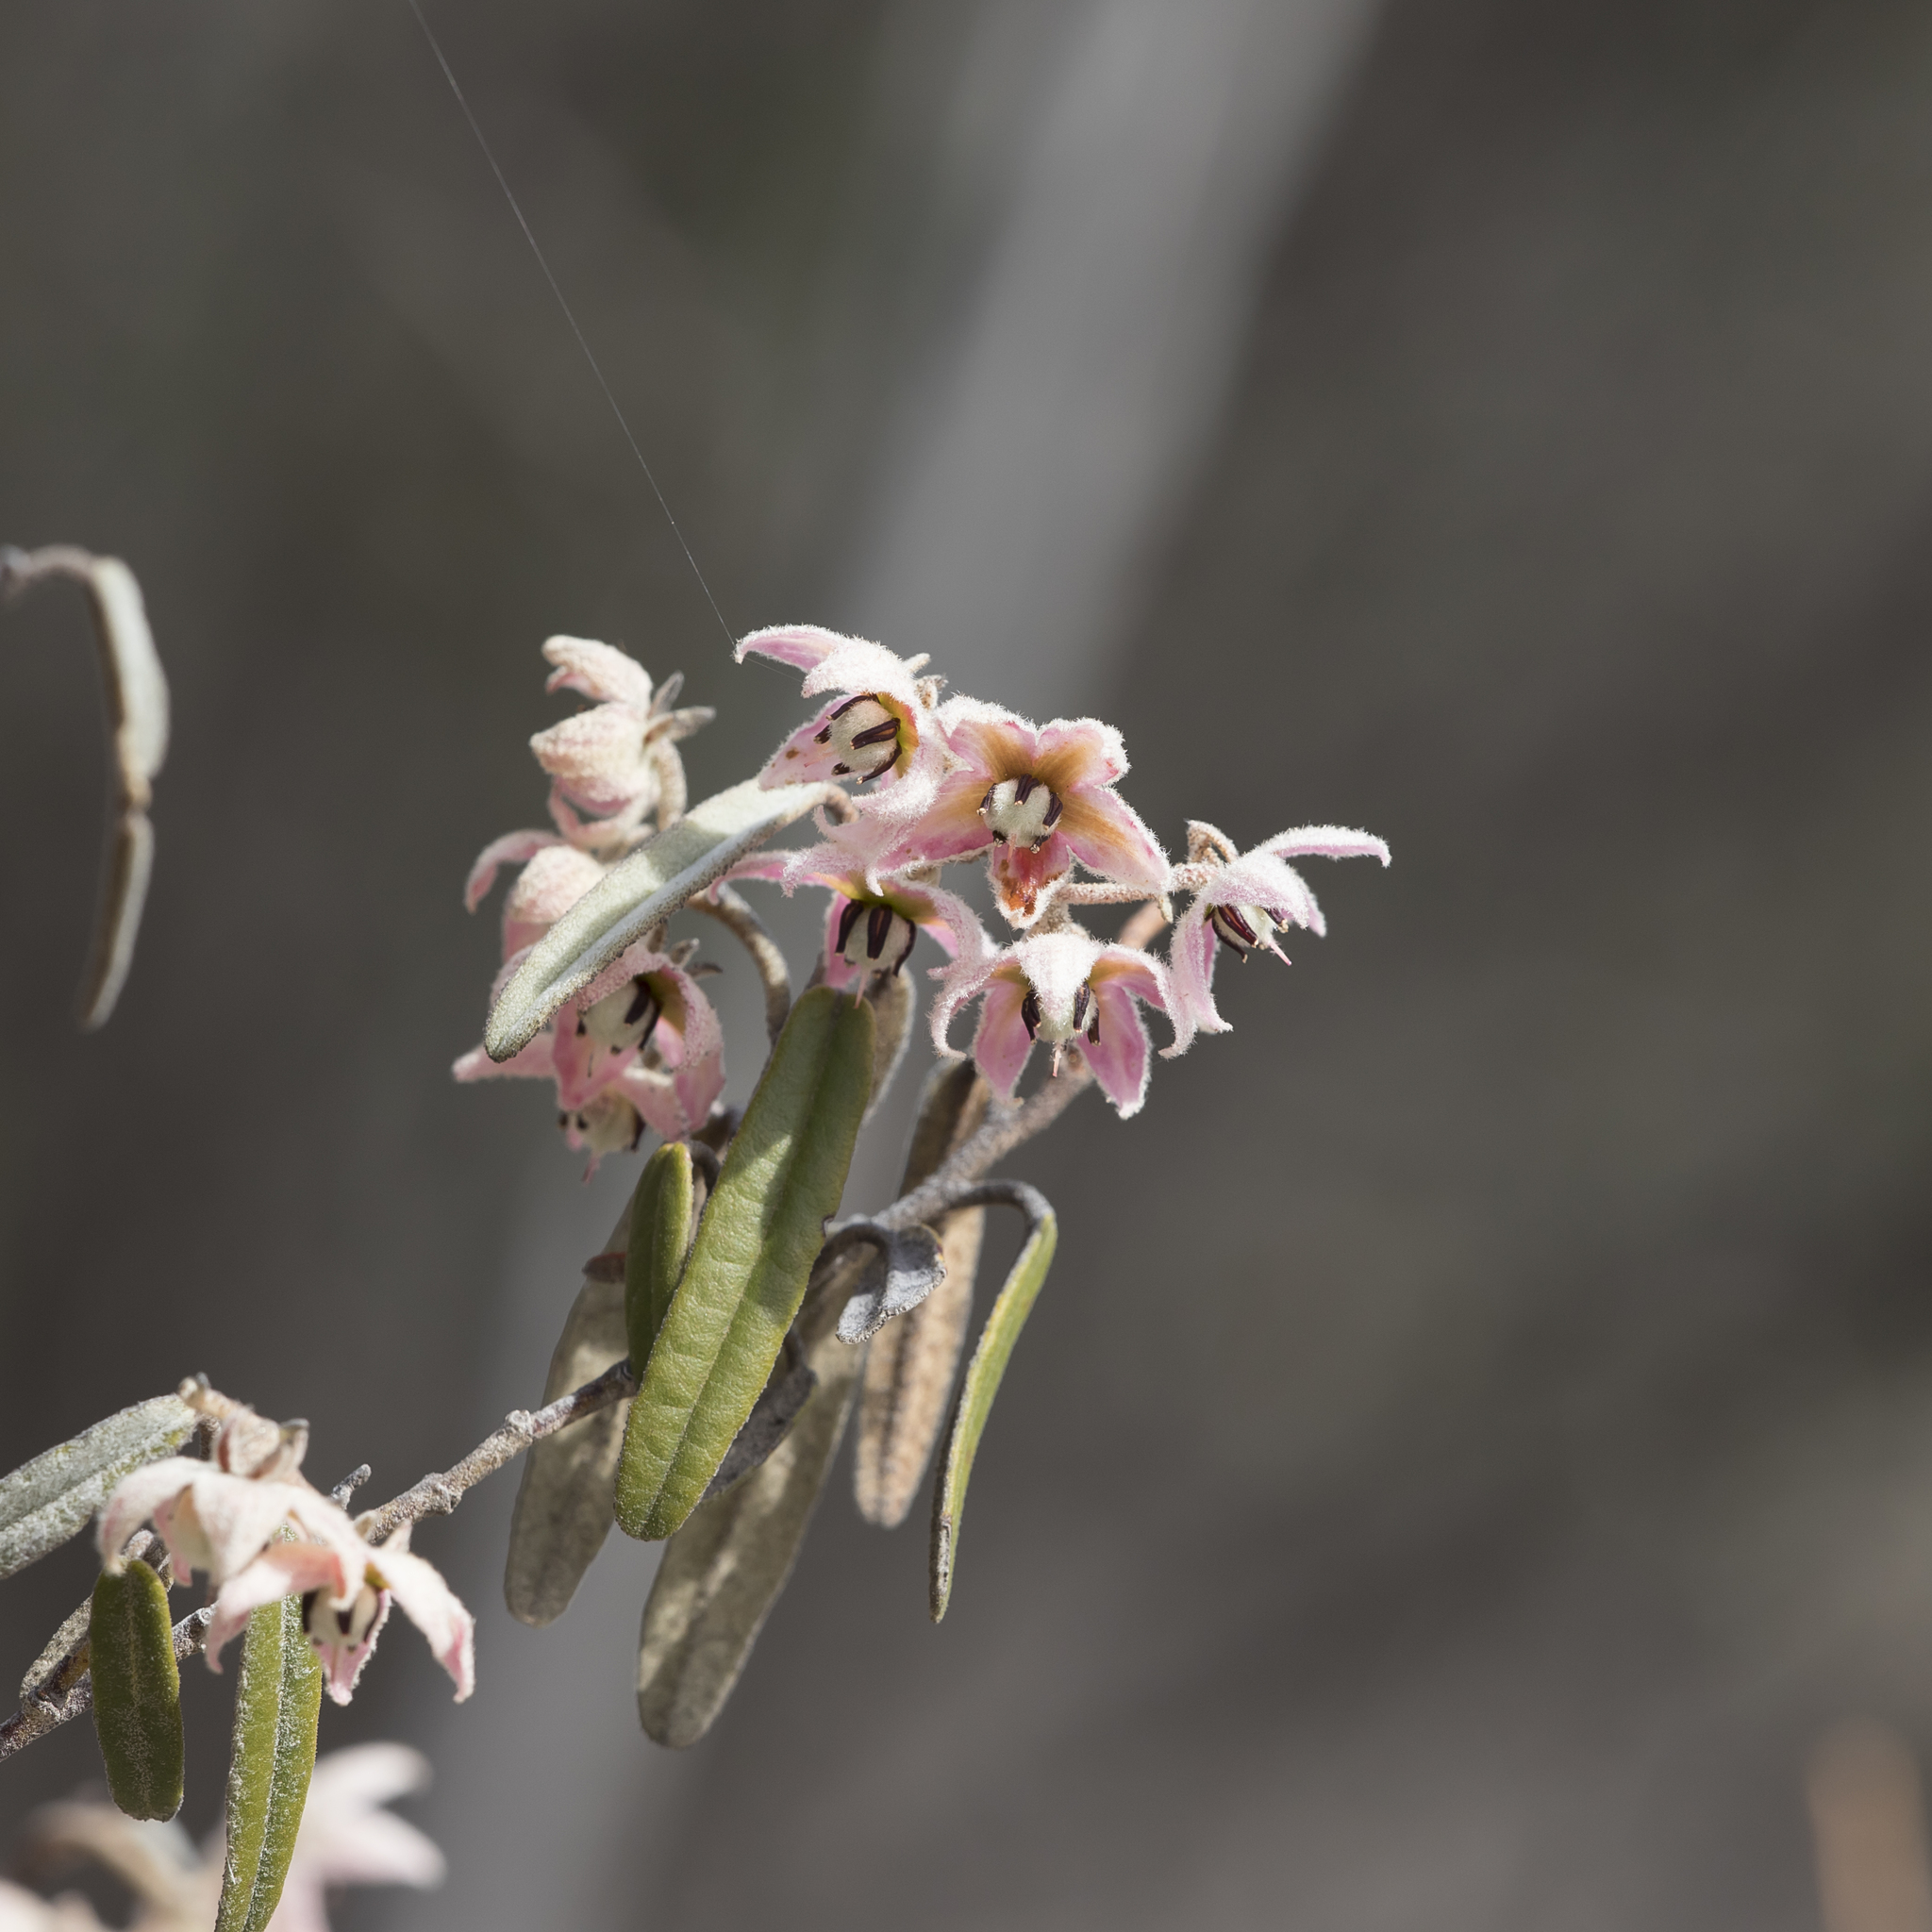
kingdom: Plantae
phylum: Tracheophyta
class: Magnoliopsida
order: Malvales
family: Malvaceae
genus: Lasiopetalum
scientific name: Lasiopetalum behrii
